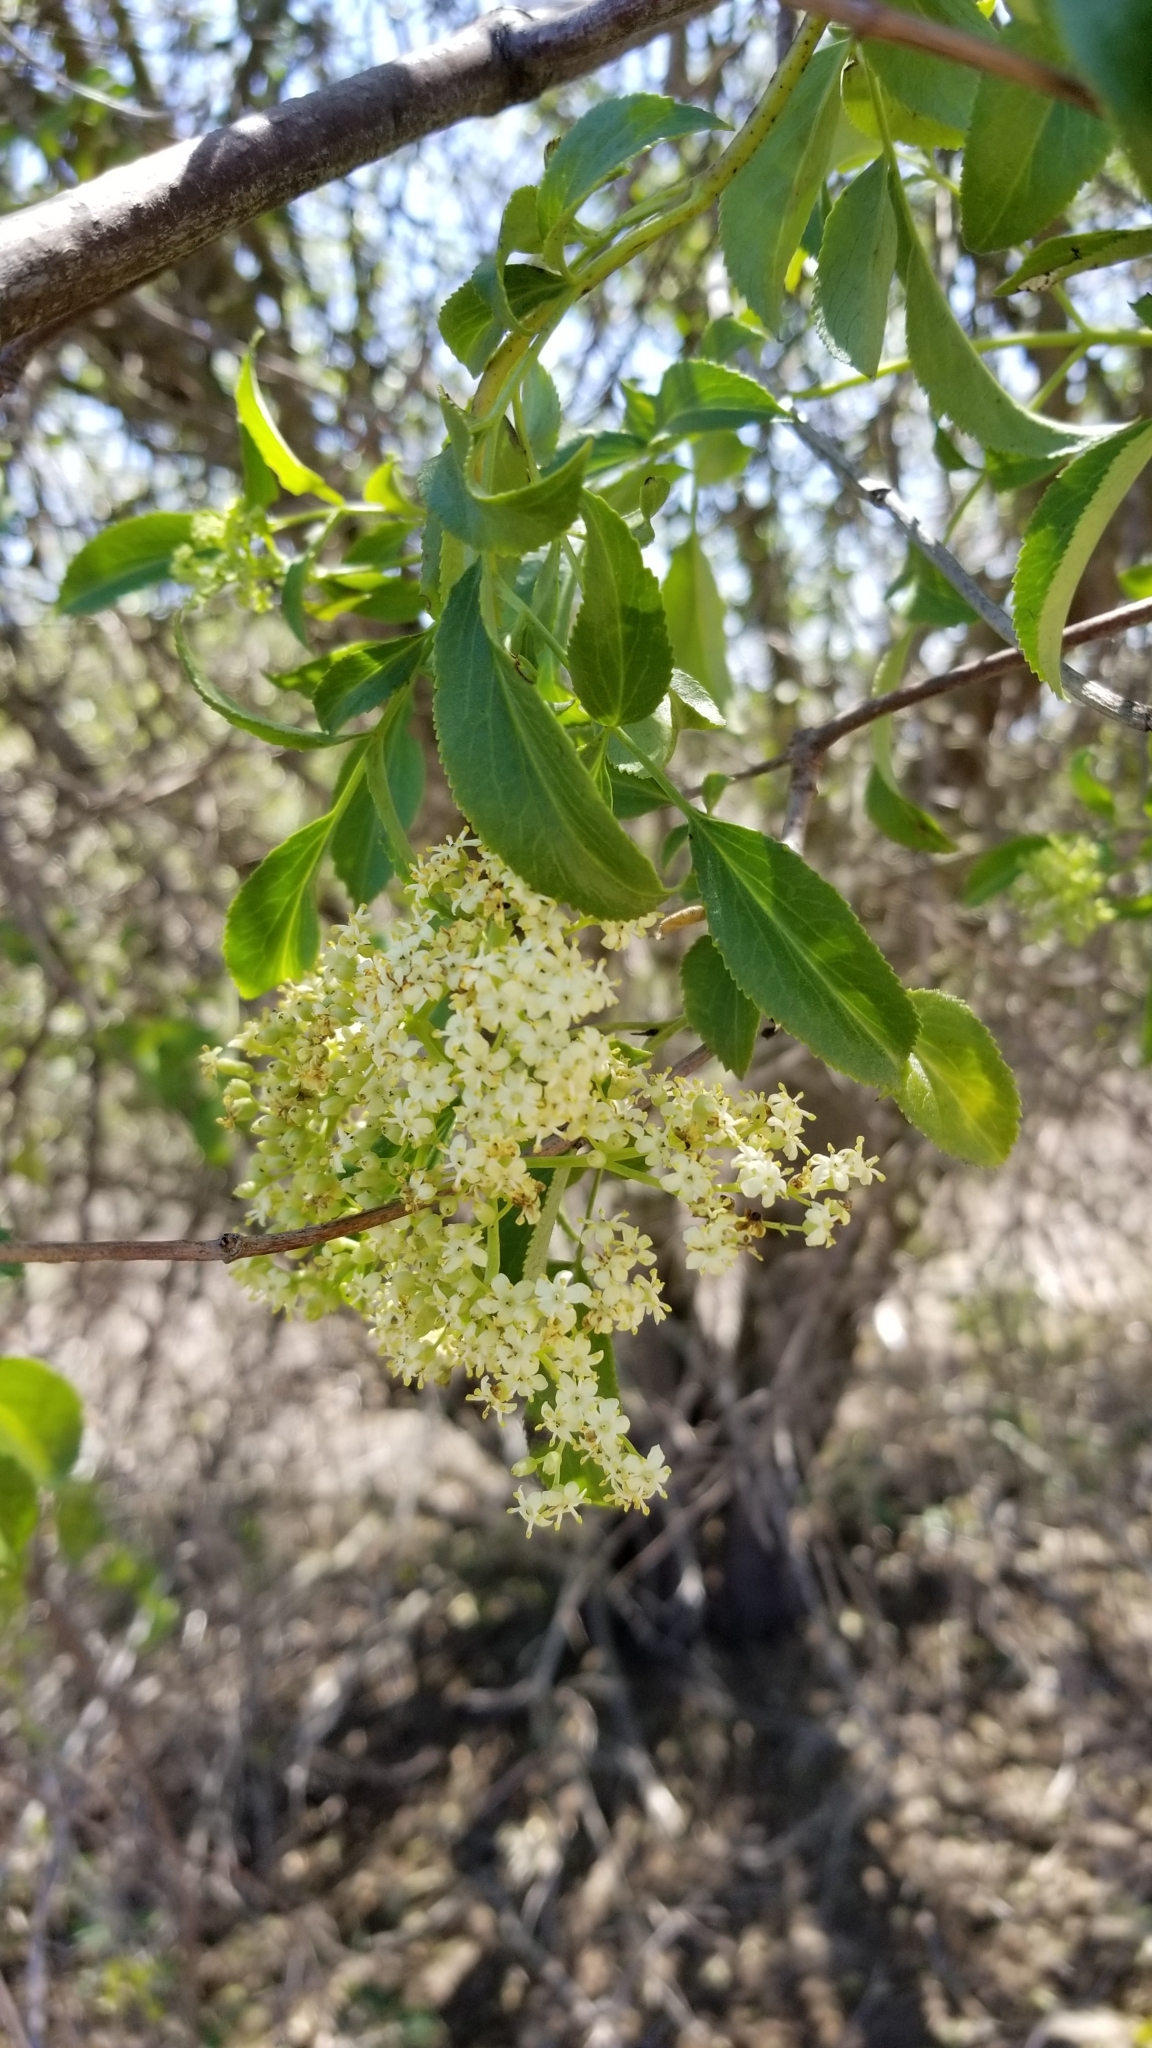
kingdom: Plantae
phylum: Tracheophyta
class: Magnoliopsida
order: Dipsacales
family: Viburnaceae
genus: Sambucus
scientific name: Sambucus cerulea
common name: Blue elder
